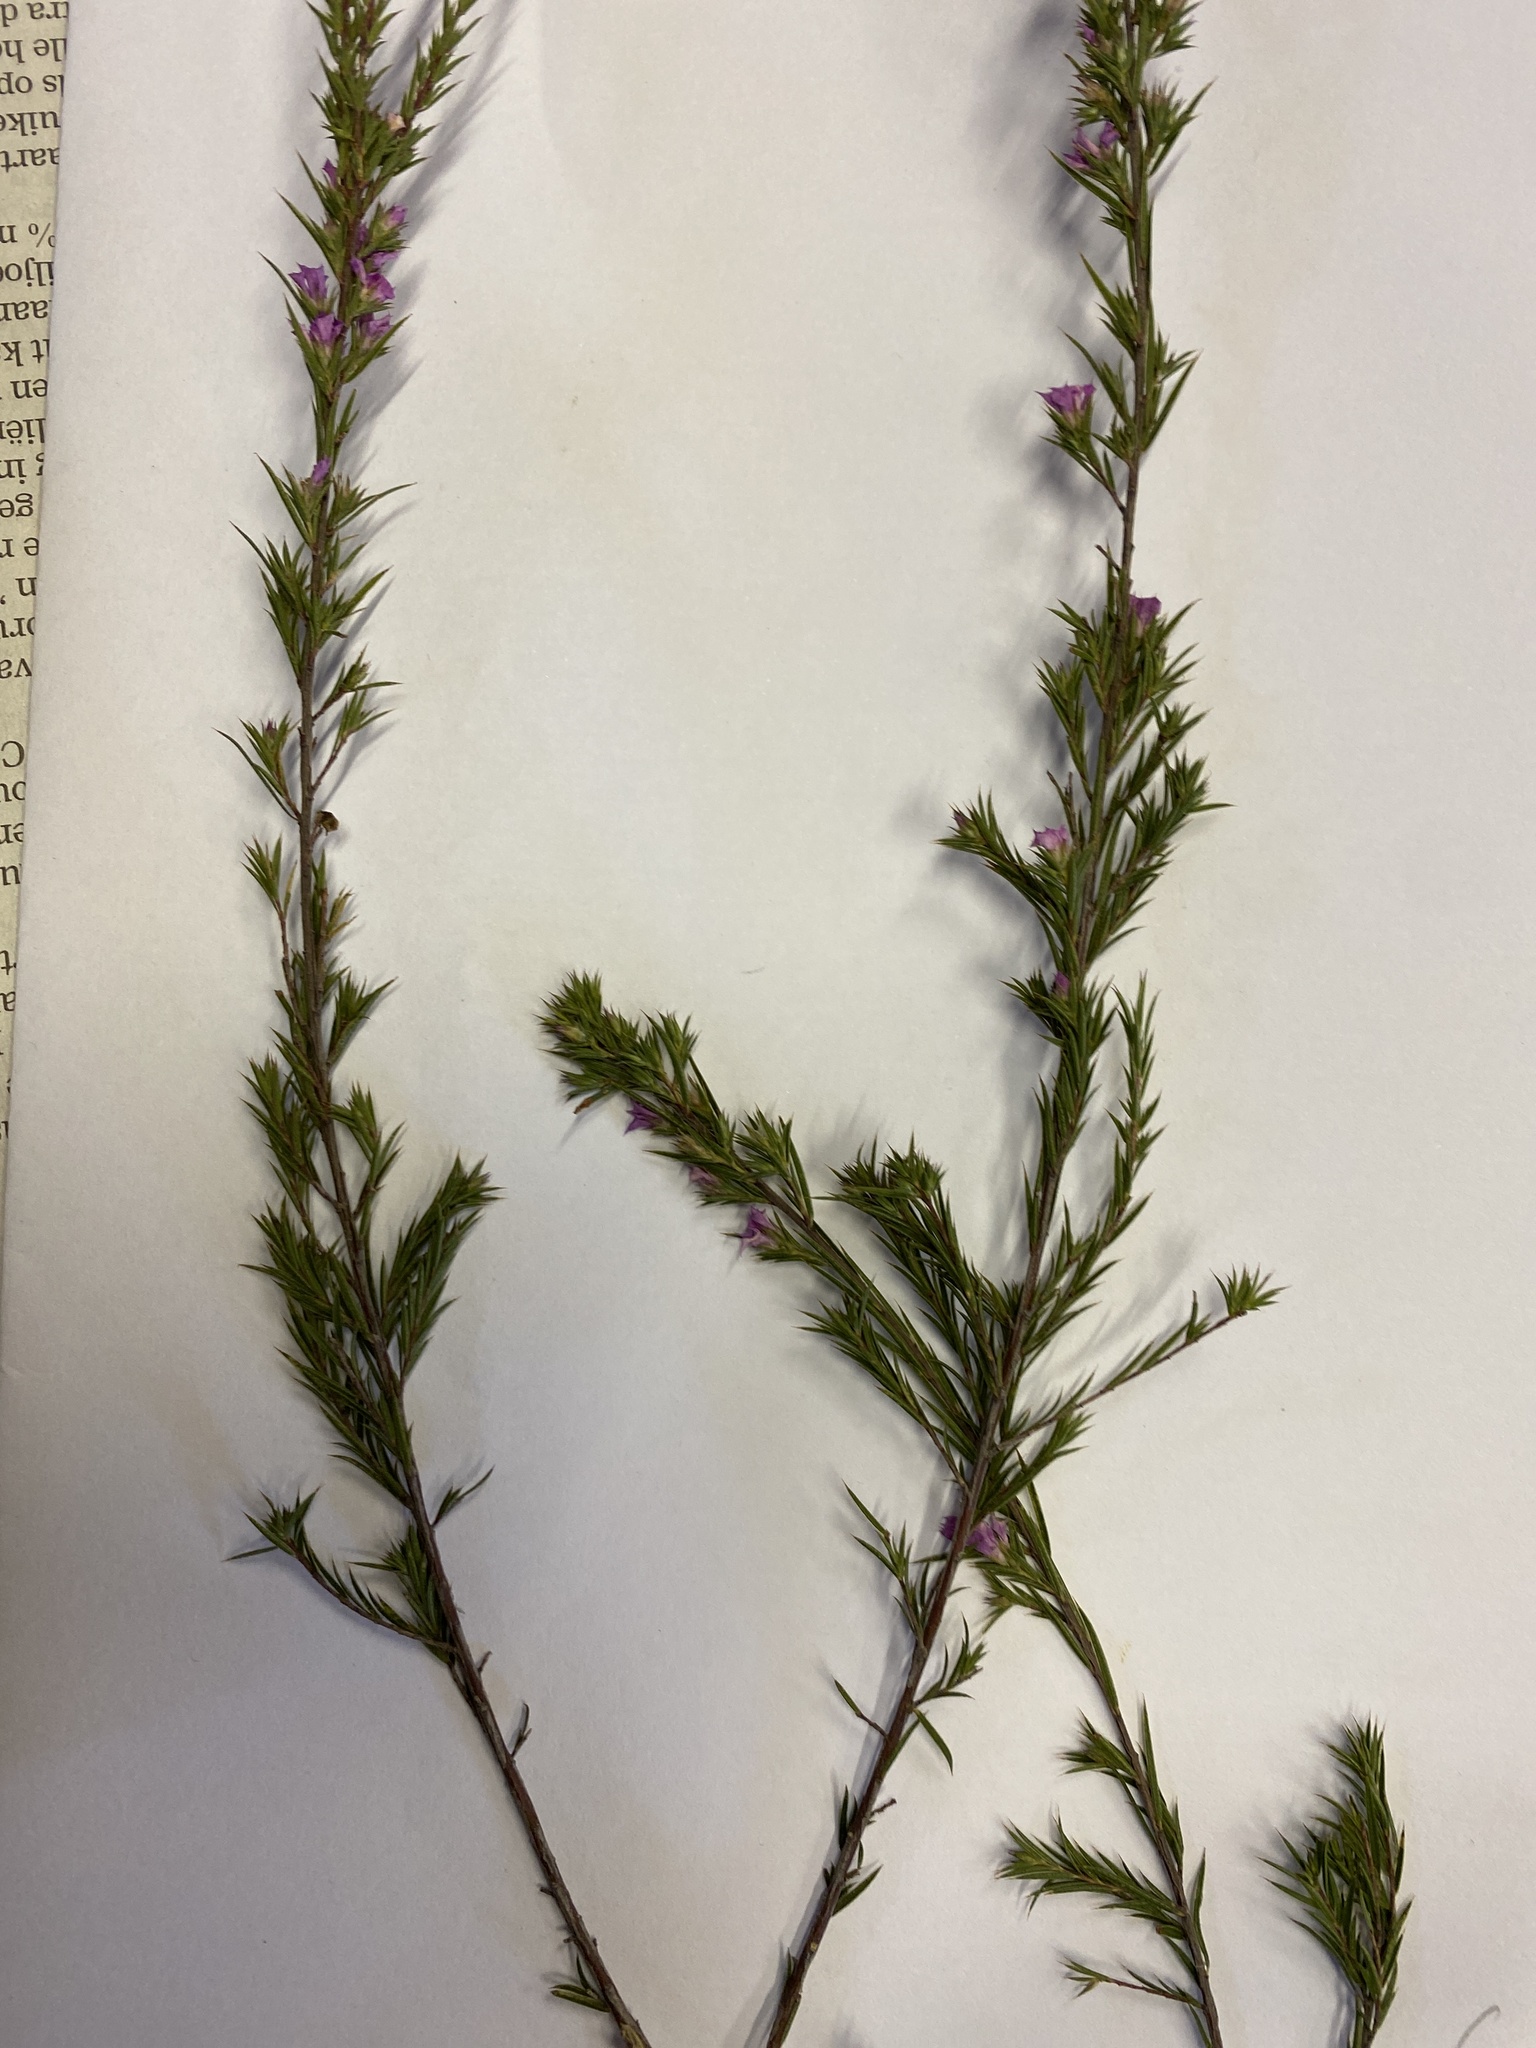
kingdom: Plantae
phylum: Tracheophyta
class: Magnoliopsida
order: Sapindales
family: Rutaceae
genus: Acmadenia
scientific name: Acmadenia trigona
